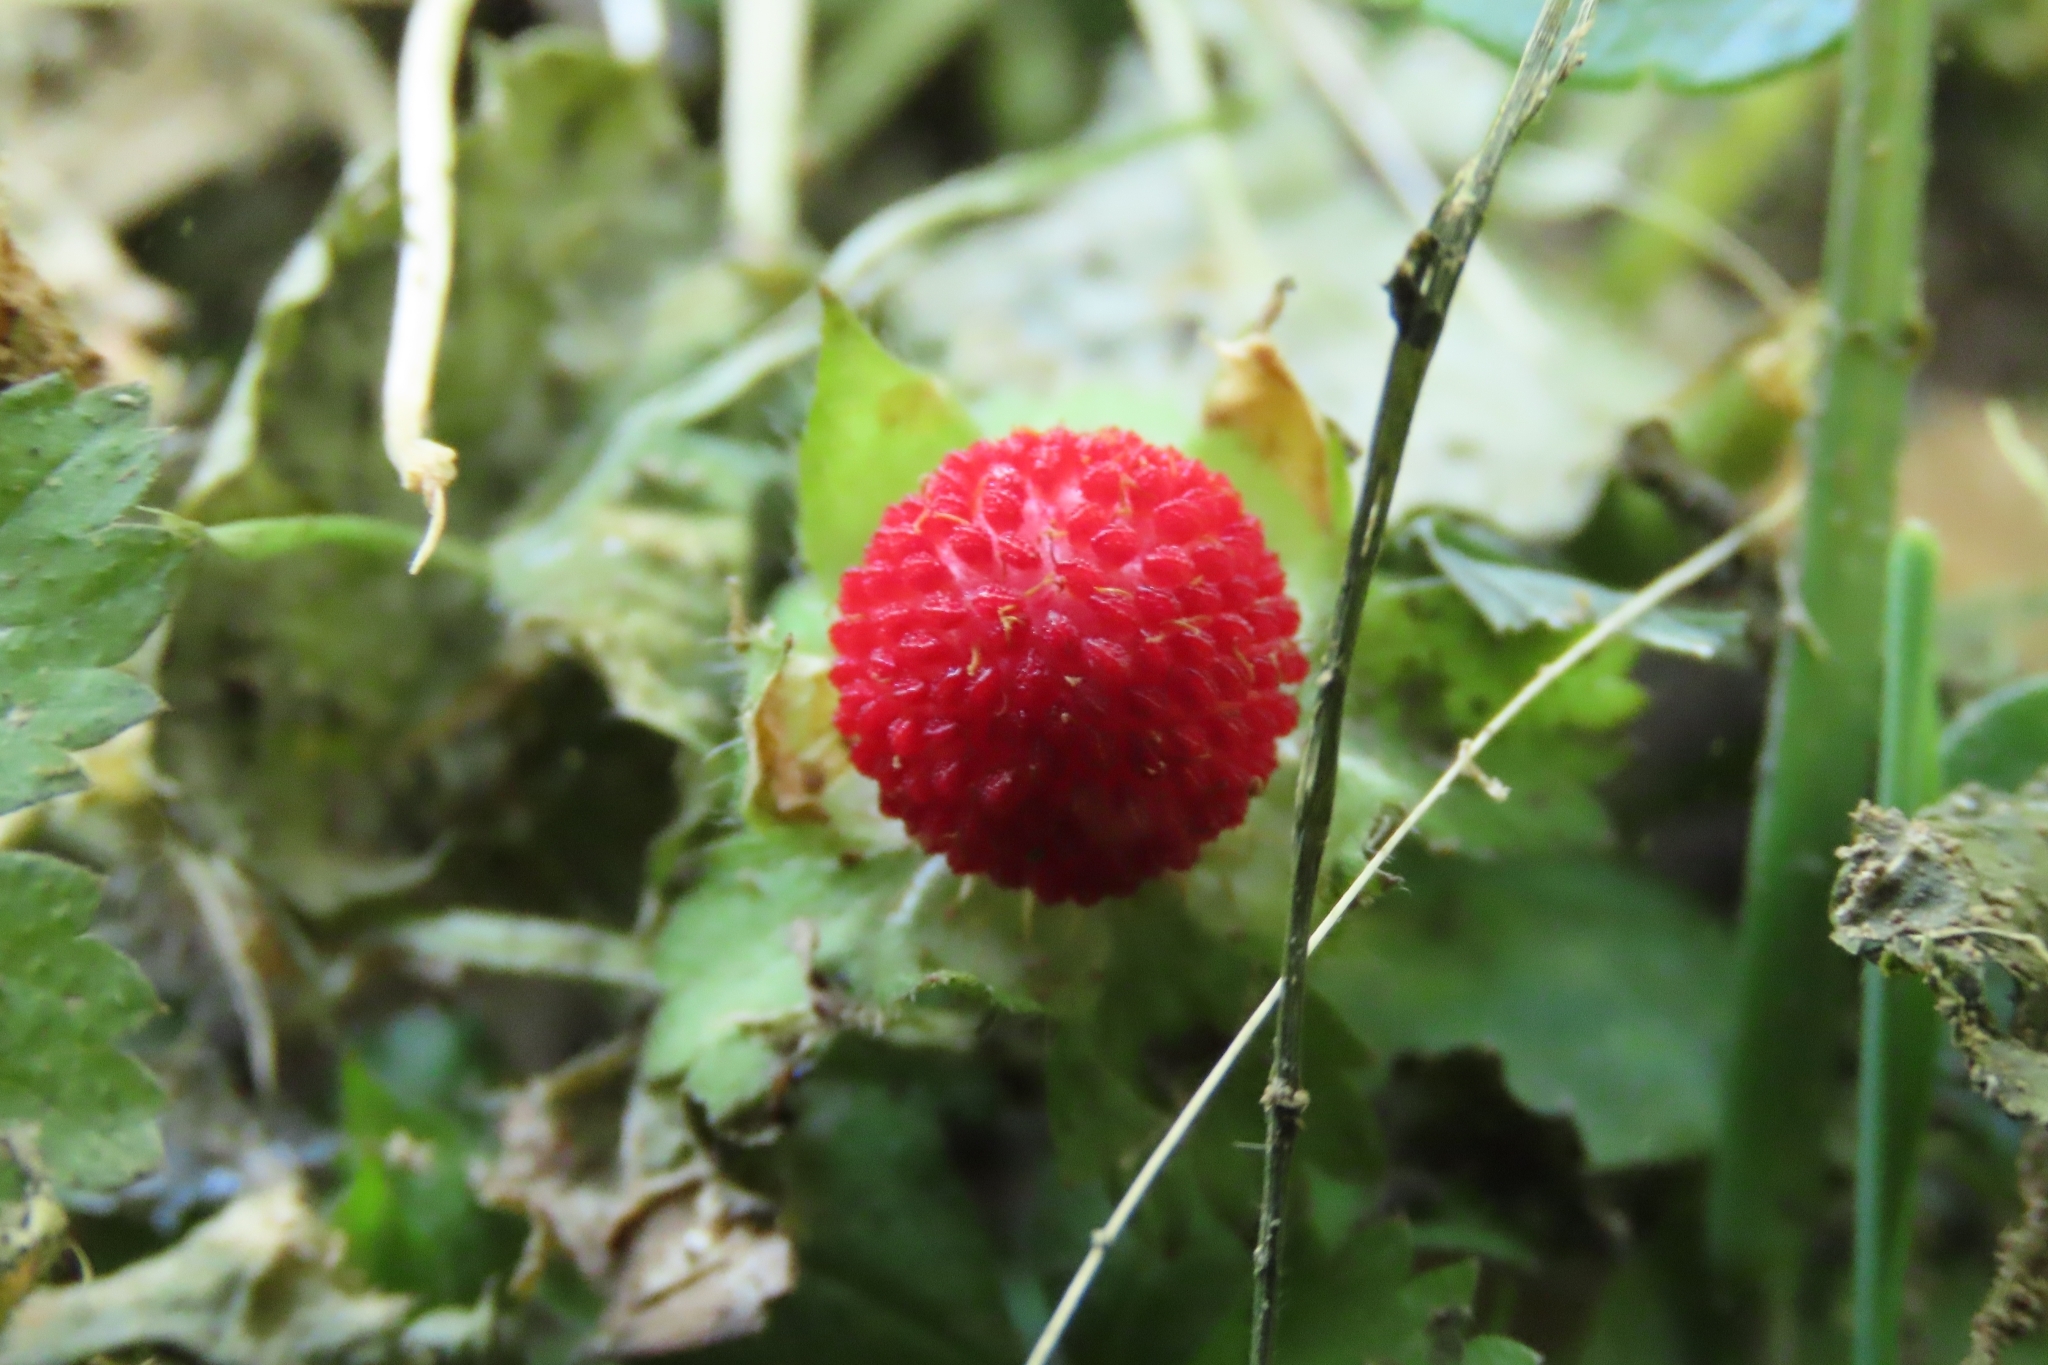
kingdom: Plantae
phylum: Tracheophyta
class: Magnoliopsida
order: Rosales
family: Rosaceae
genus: Potentilla
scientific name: Potentilla wallichiana
